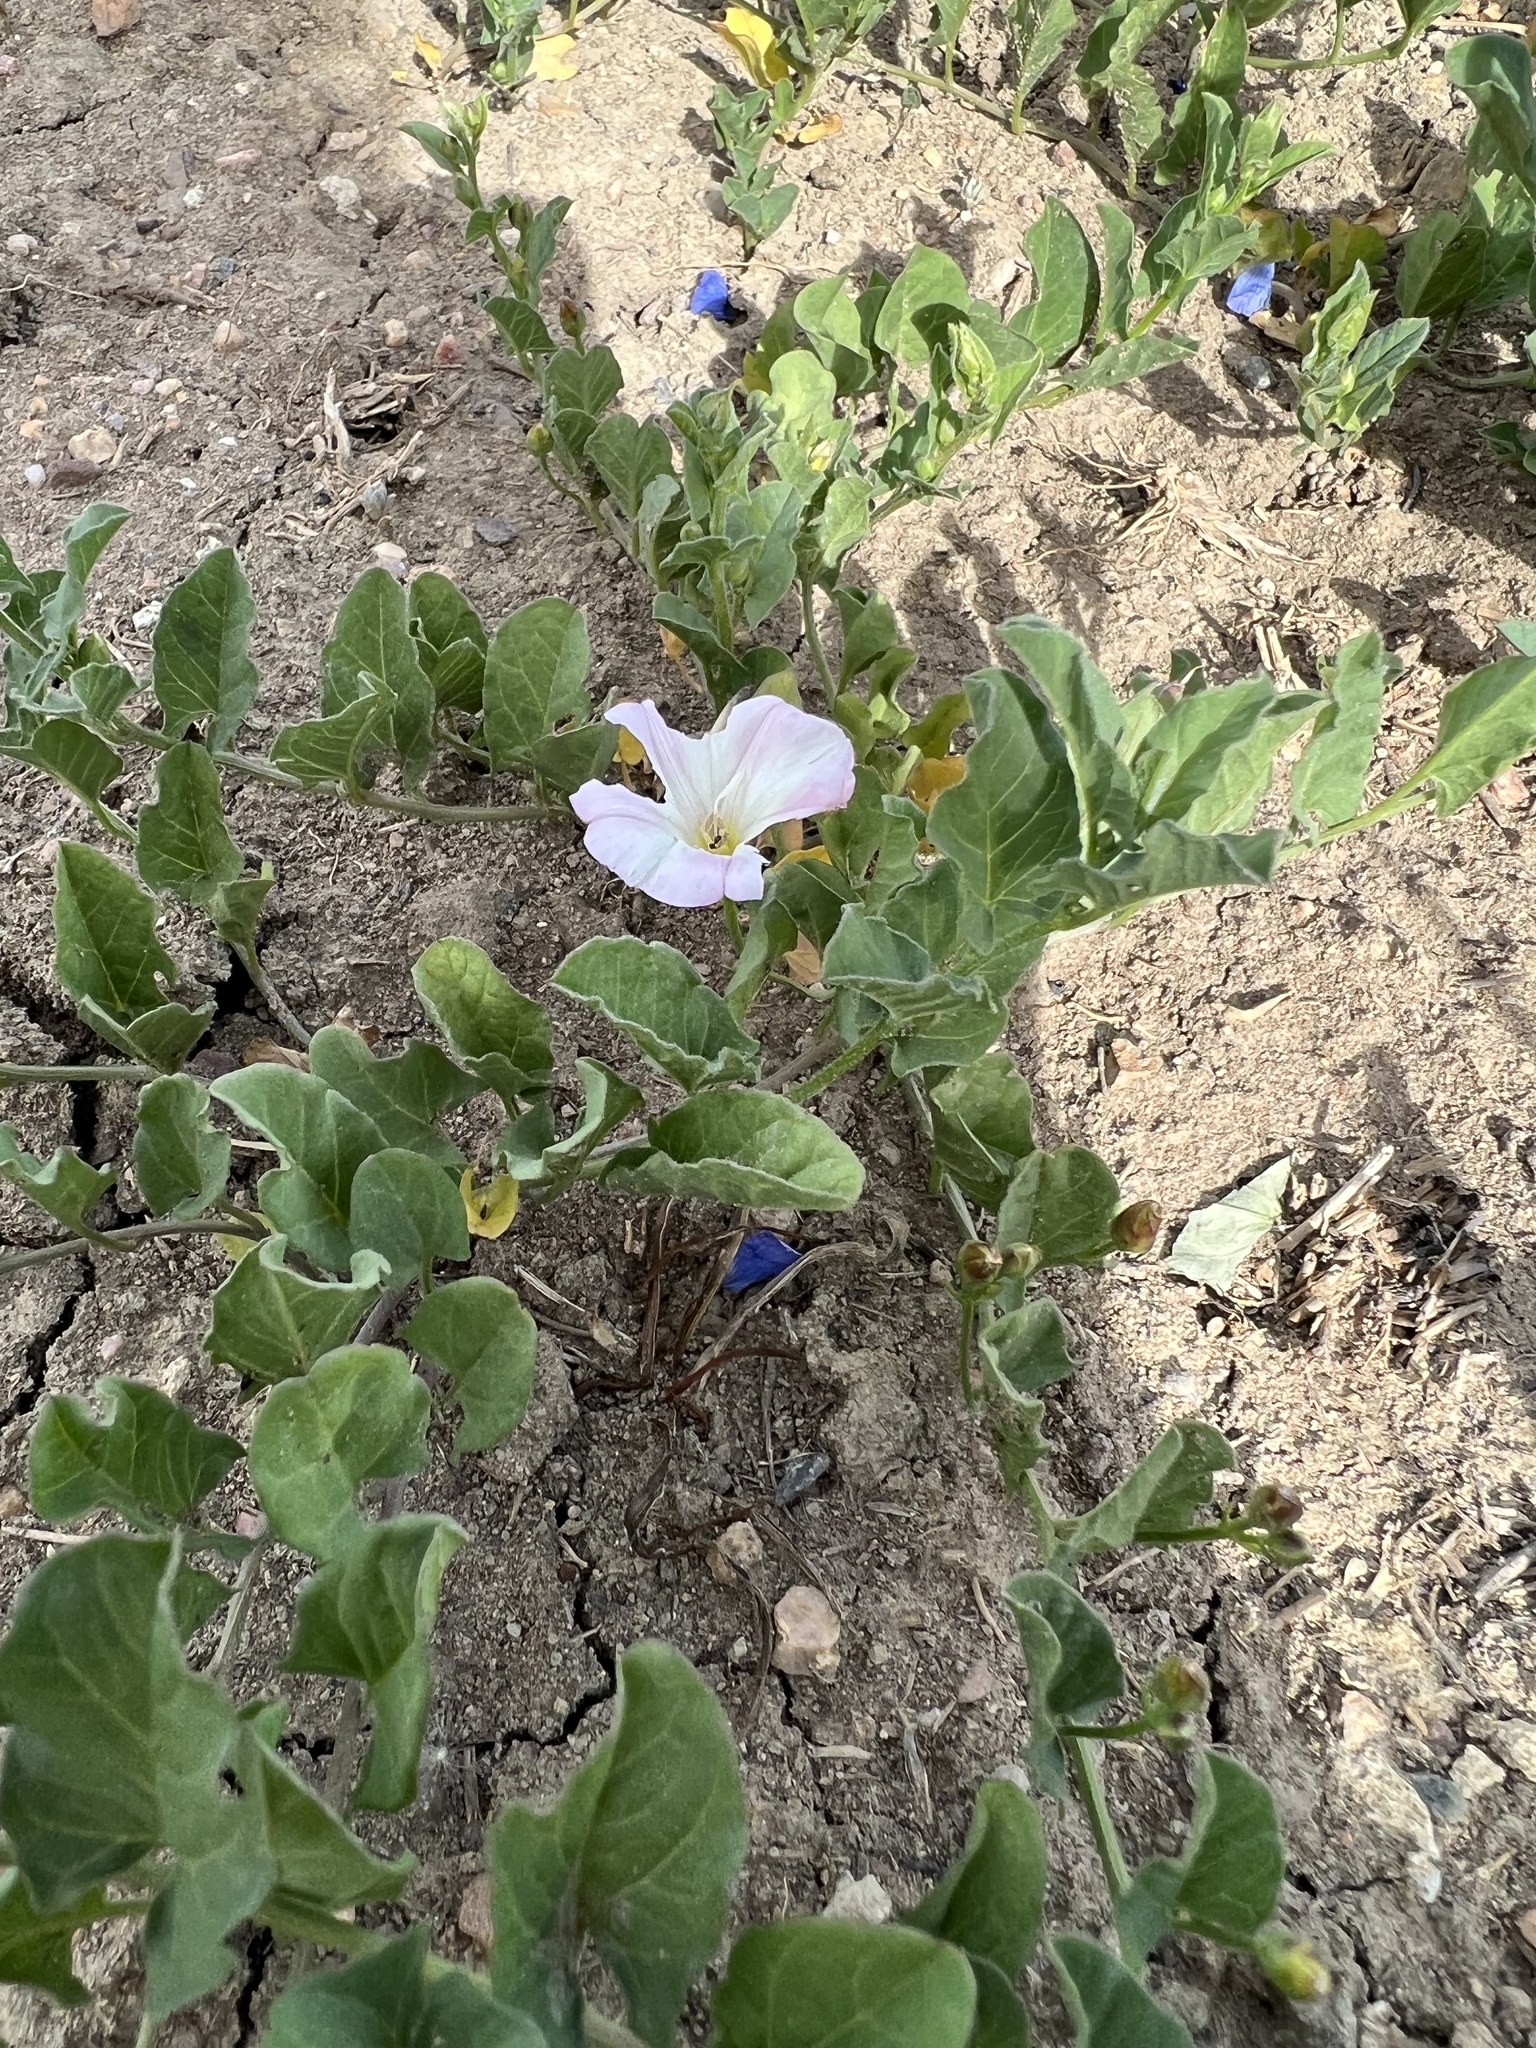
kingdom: Plantae
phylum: Tracheophyta
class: Magnoliopsida
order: Solanales
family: Convolvulaceae
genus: Convolvulus
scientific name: Convolvulus arvensis
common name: Field bindweed
